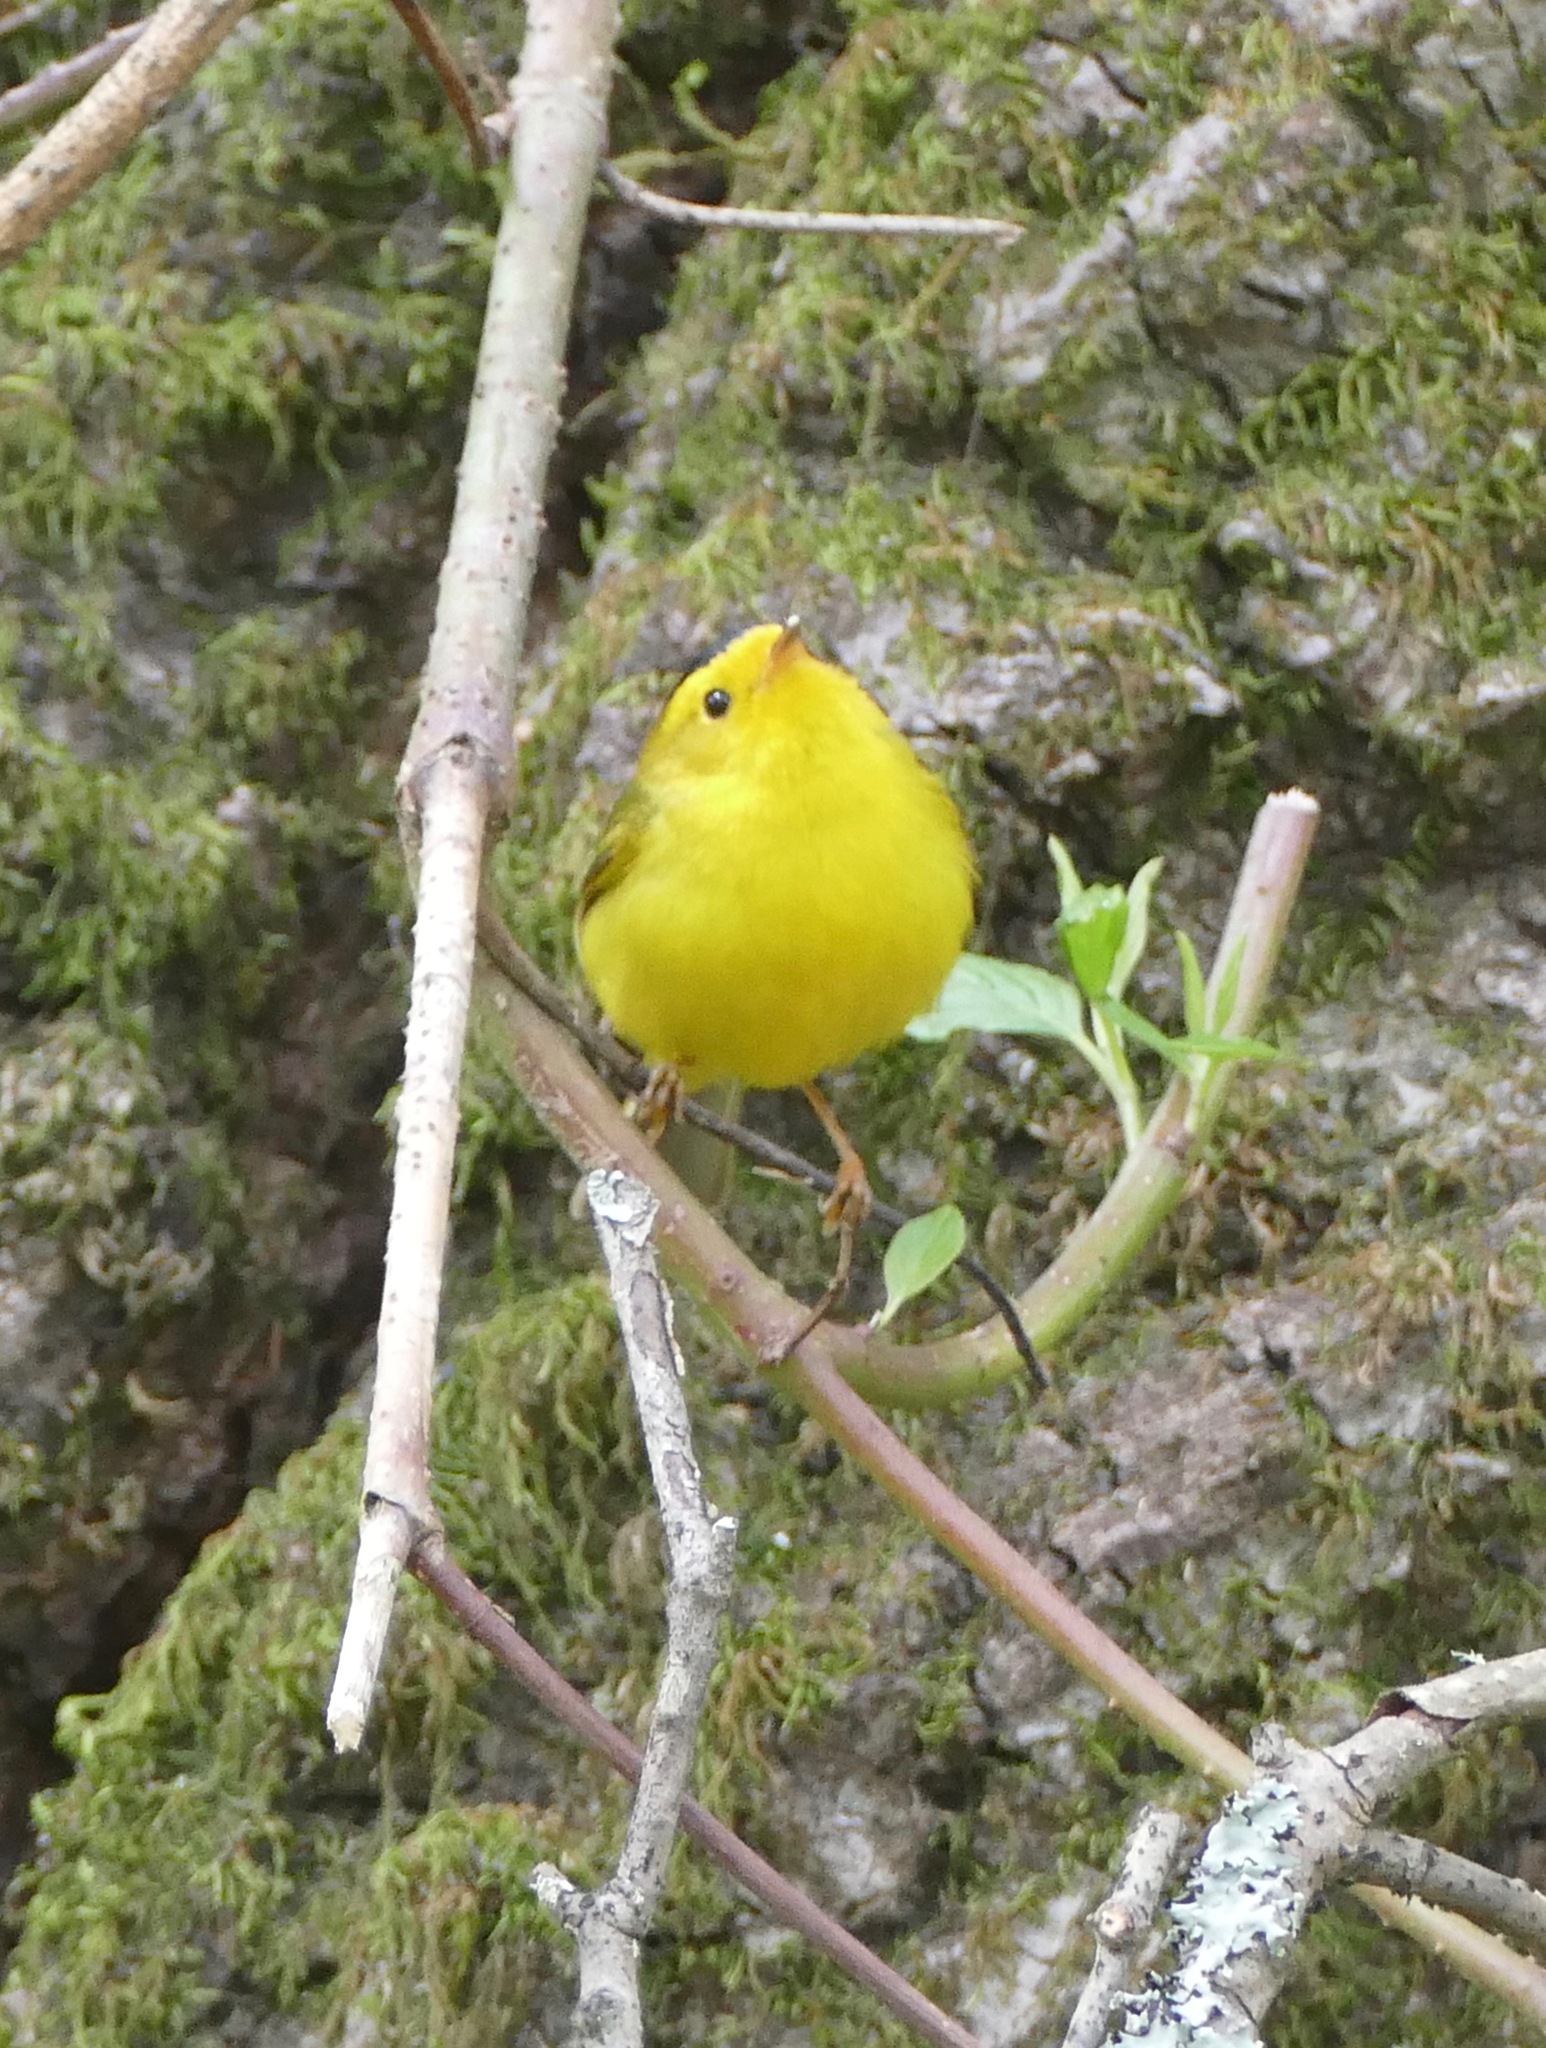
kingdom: Animalia
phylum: Chordata
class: Aves
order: Passeriformes
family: Parulidae
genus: Cardellina
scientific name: Cardellina pusilla
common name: Wilson's warbler
